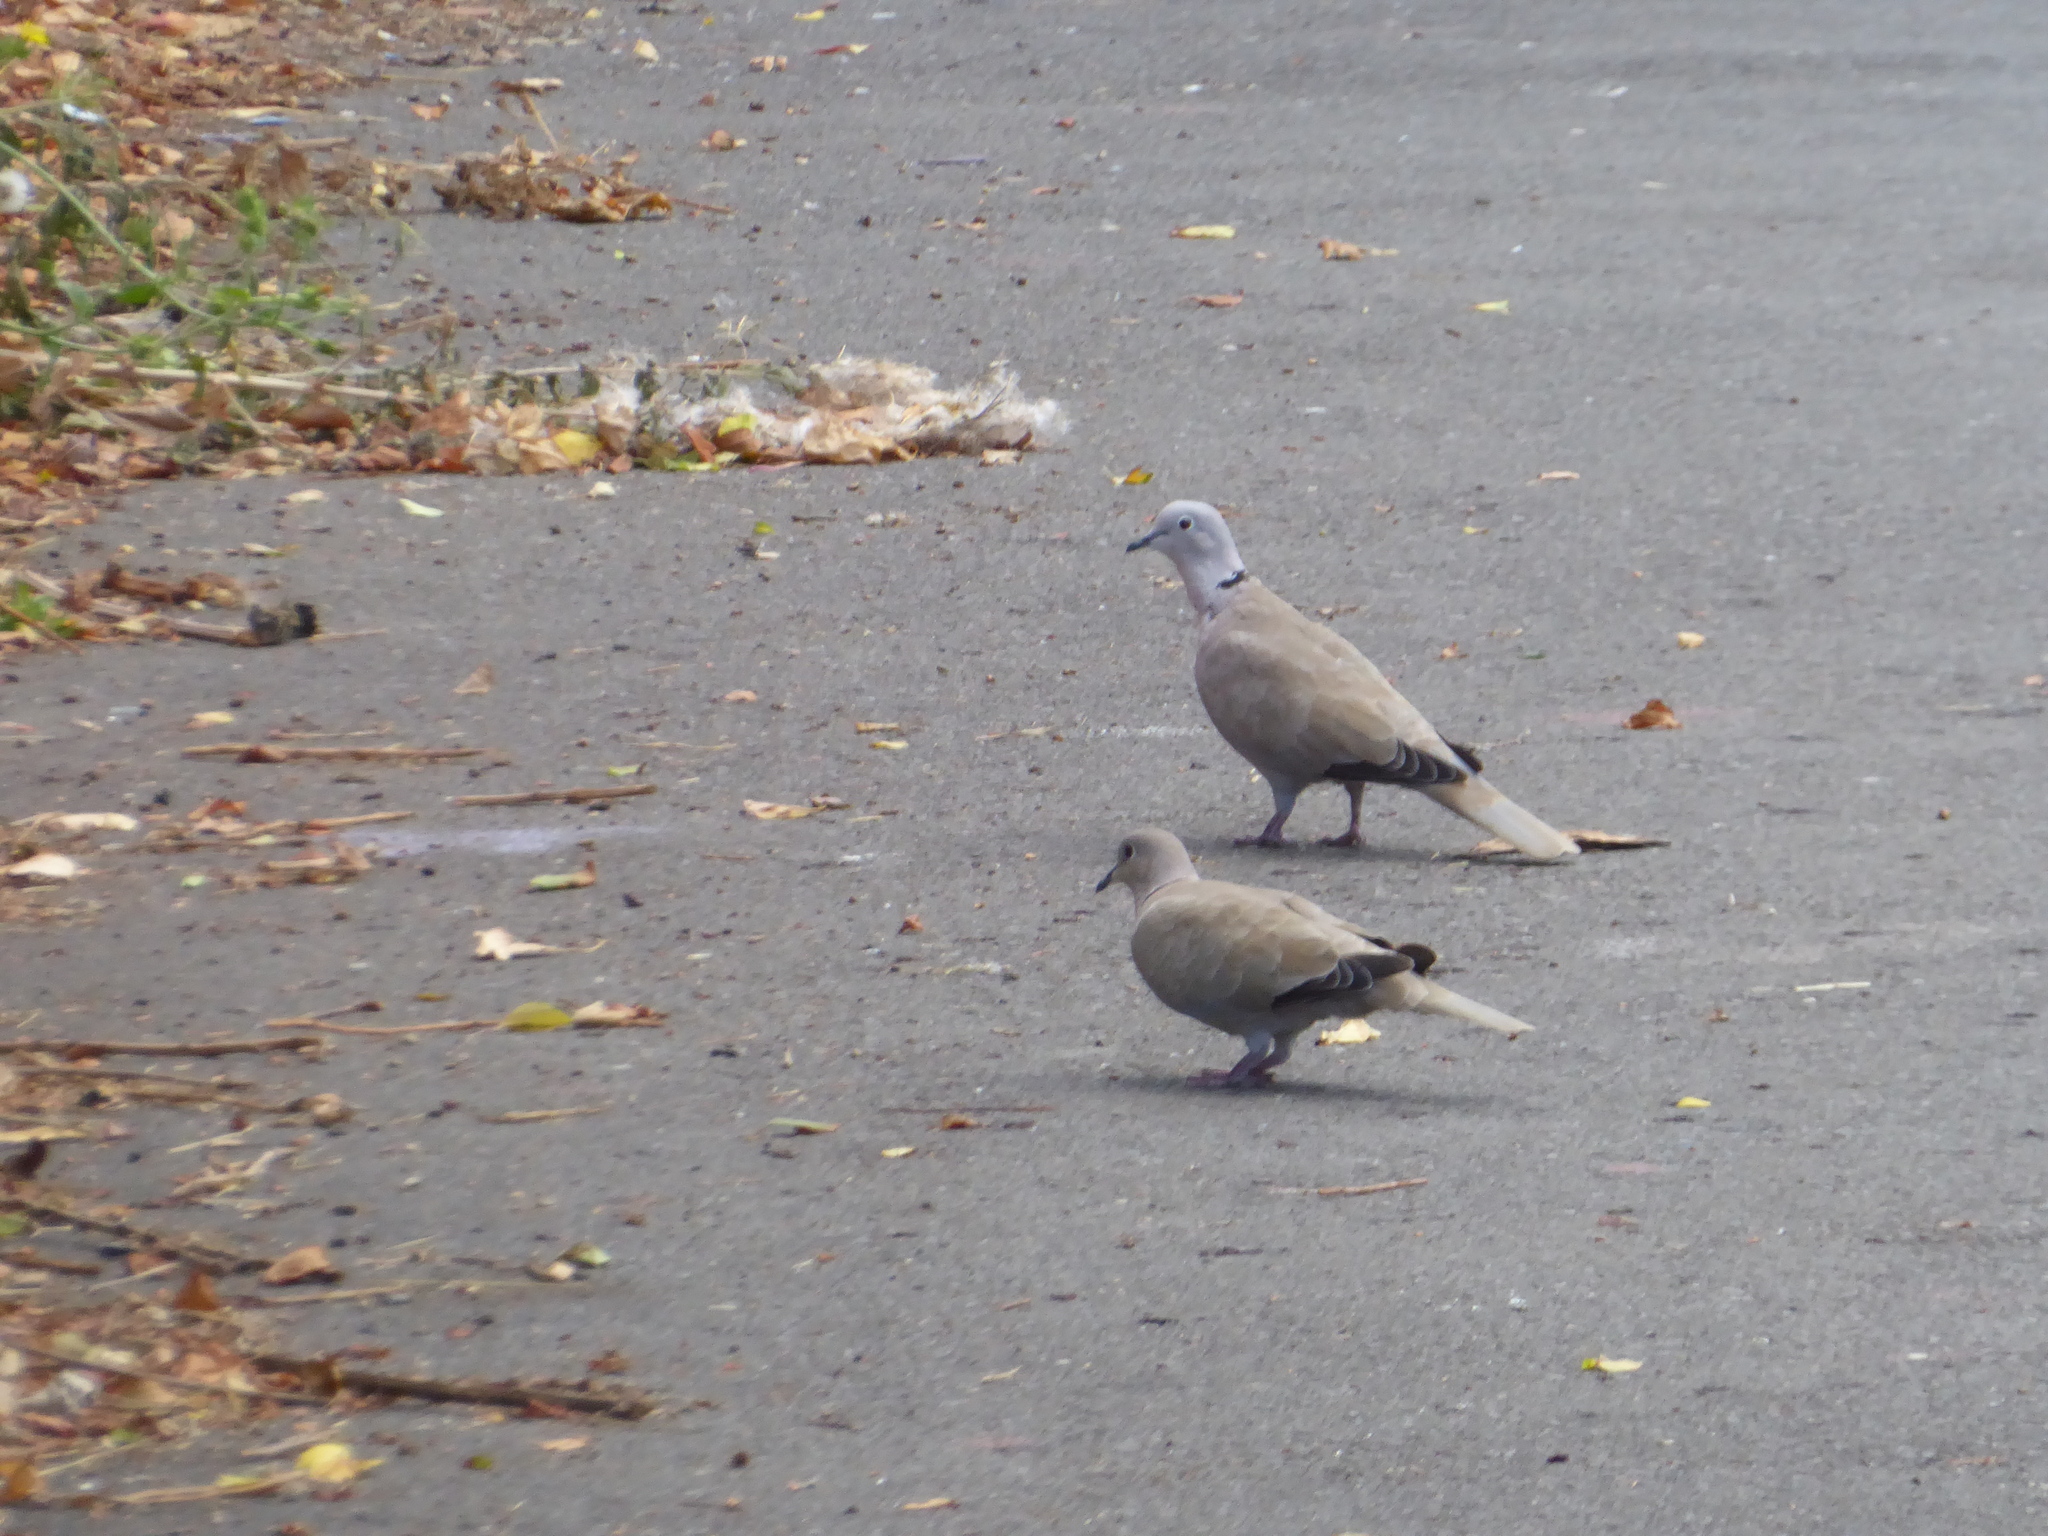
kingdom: Animalia
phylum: Chordata
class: Aves
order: Columbiformes
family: Columbidae
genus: Streptopelia
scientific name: Streptopelia decaocto
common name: Eurasian collared dove
